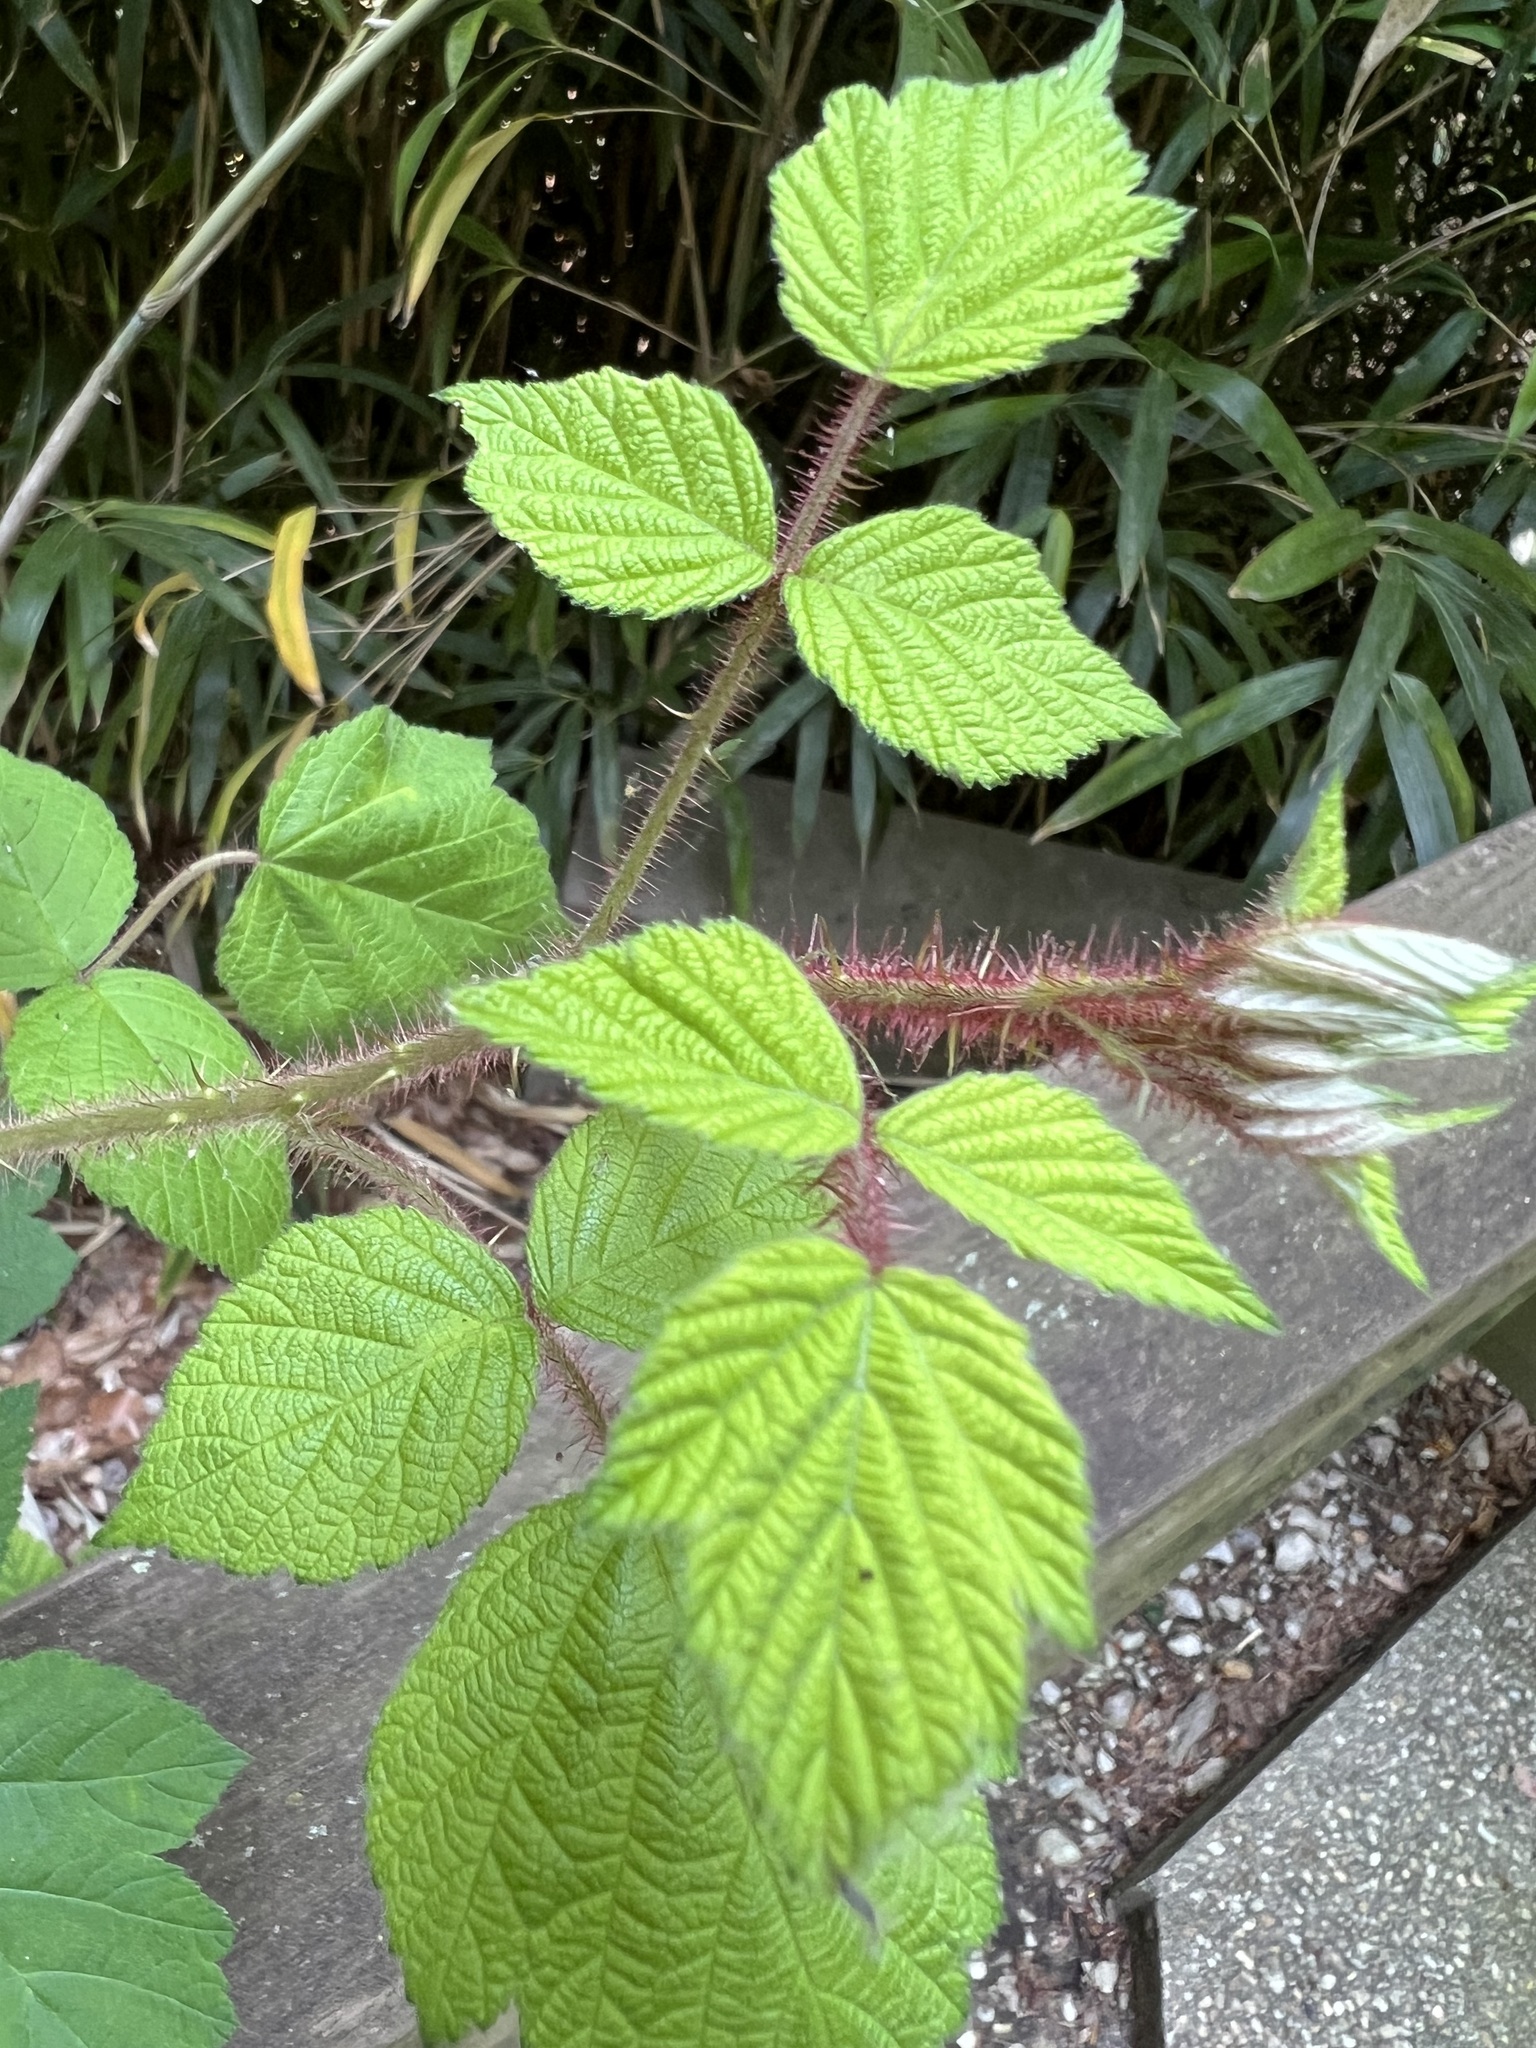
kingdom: Plantae
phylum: Tracheophyta
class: Magnoliopsida
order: Rosales
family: Rosaceae
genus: Rubus
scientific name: Rubus phoenicolasius
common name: Japanese wineberry
